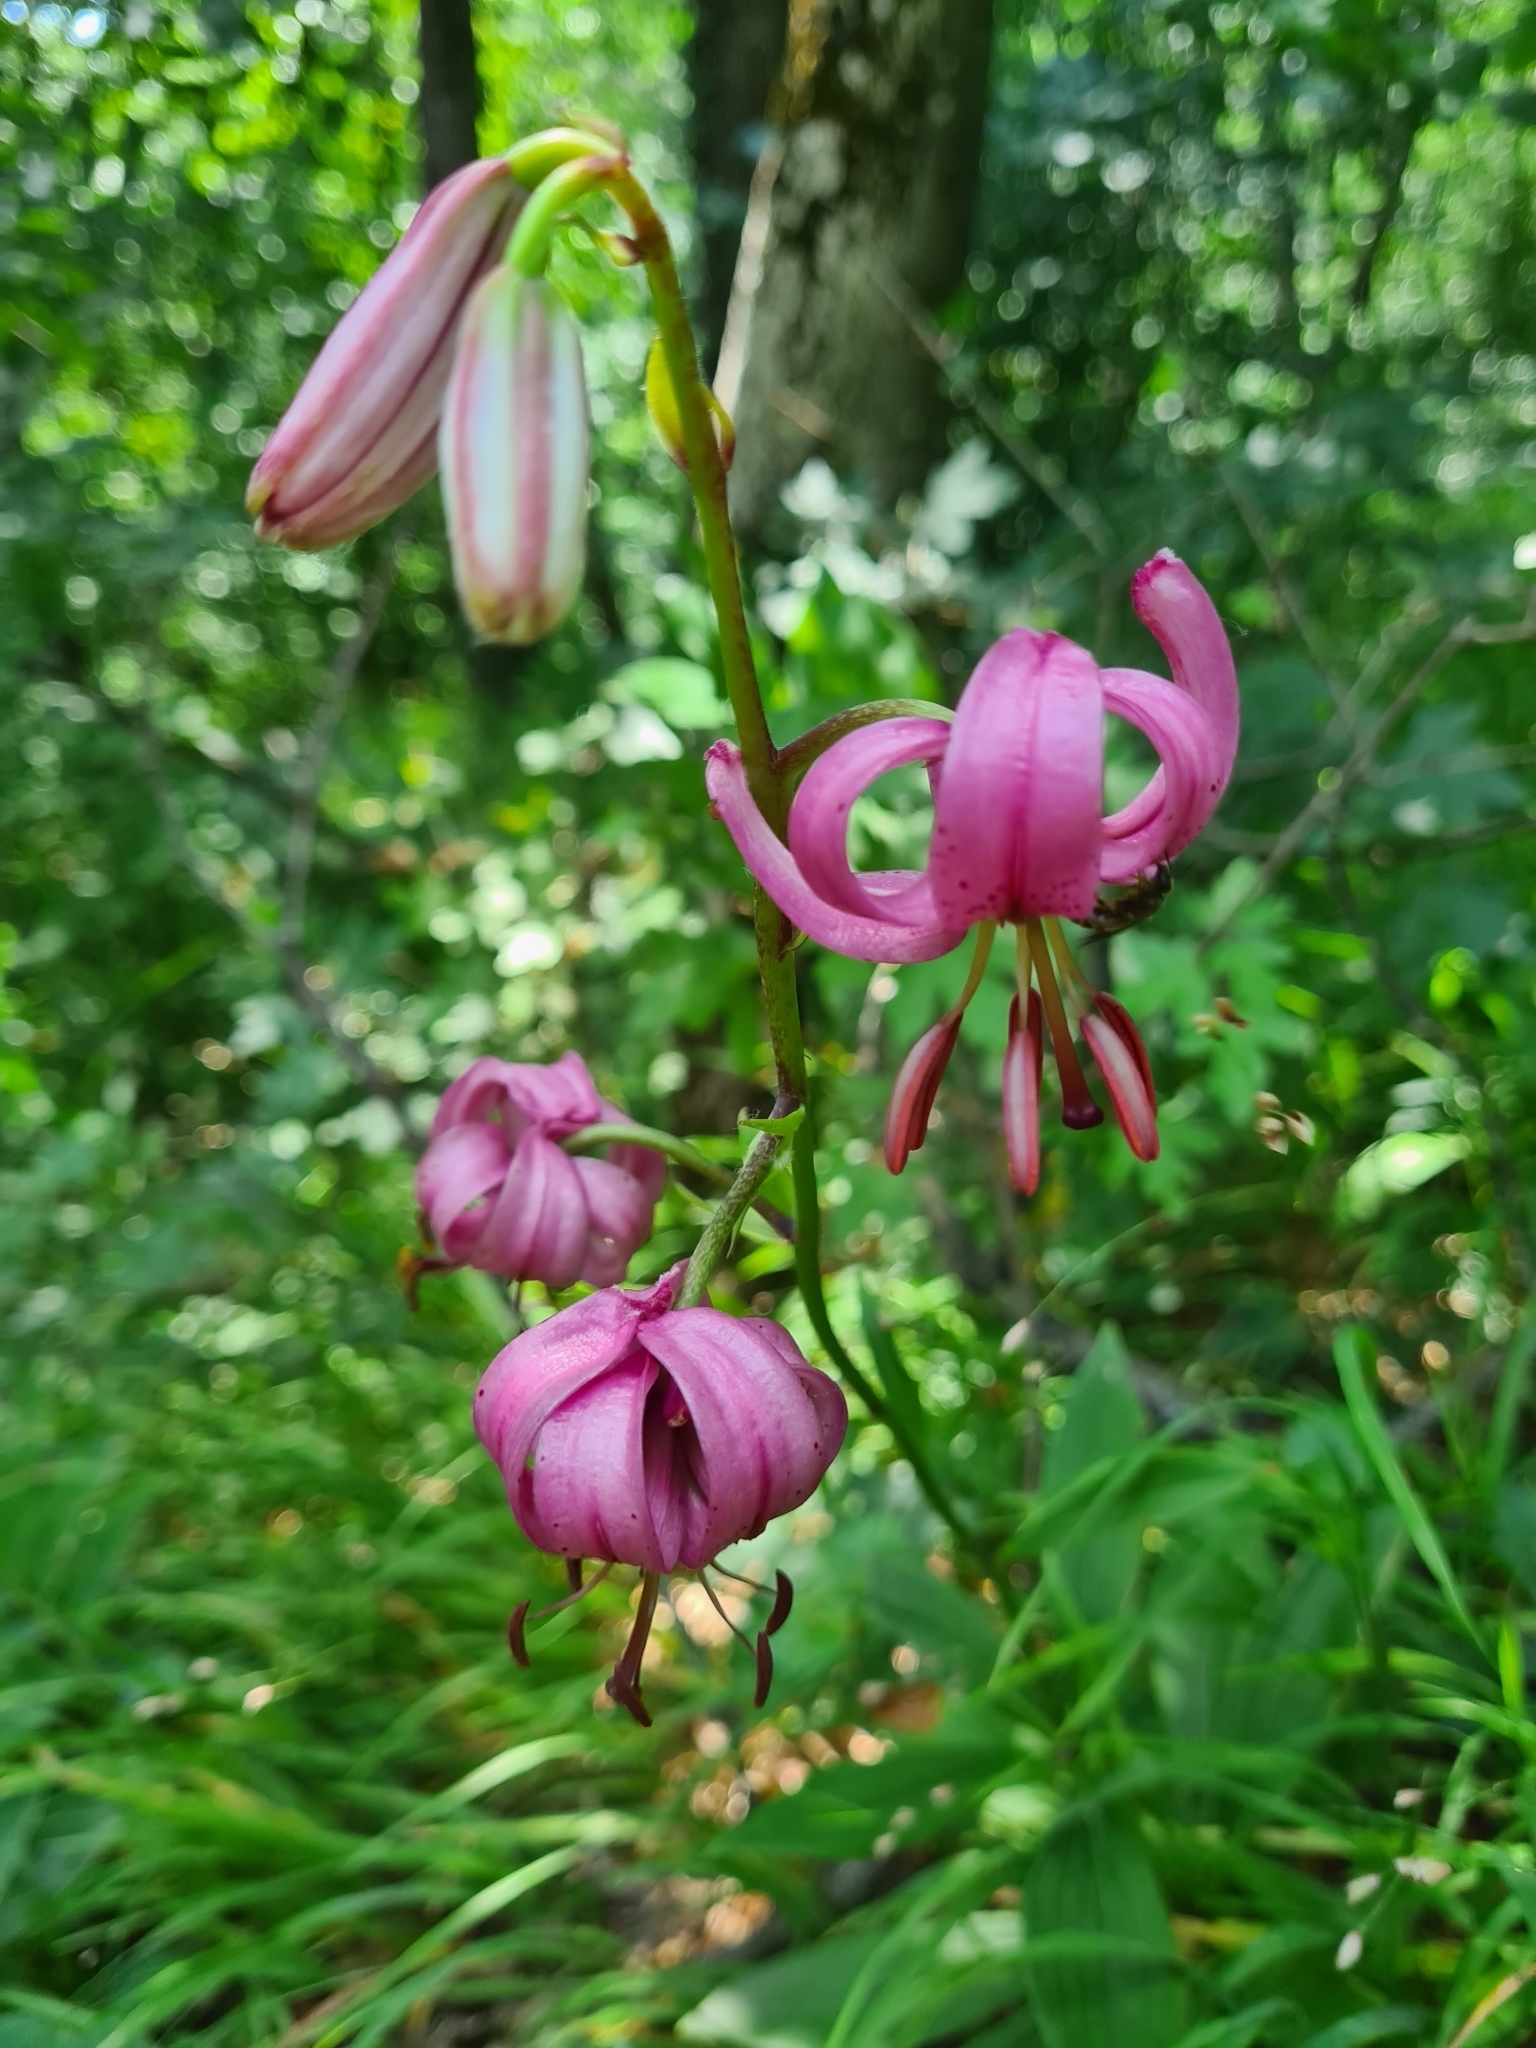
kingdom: Plantae
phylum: Tracheophyta
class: Liliopsida
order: Liliales
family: Liliaceae
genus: Lilium
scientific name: Lilium martagon
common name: Martagon lily
